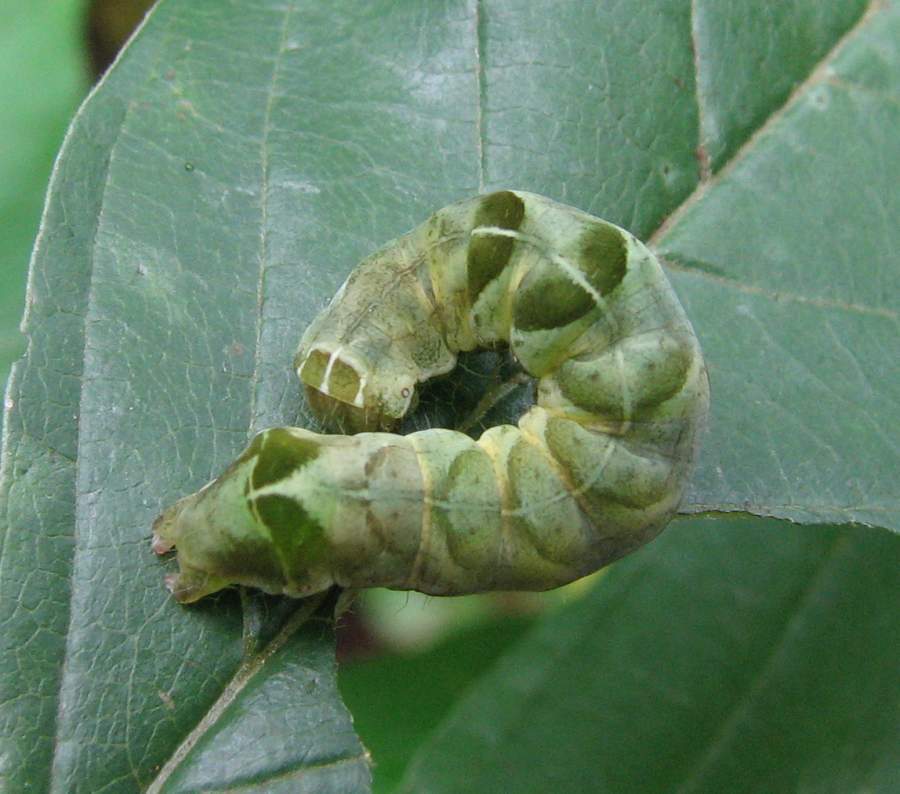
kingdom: Animalia
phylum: Arthropoda
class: Insecta
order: Lepidoptera
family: Noctuidae
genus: Melanchra
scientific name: Melanchra adjuncta
